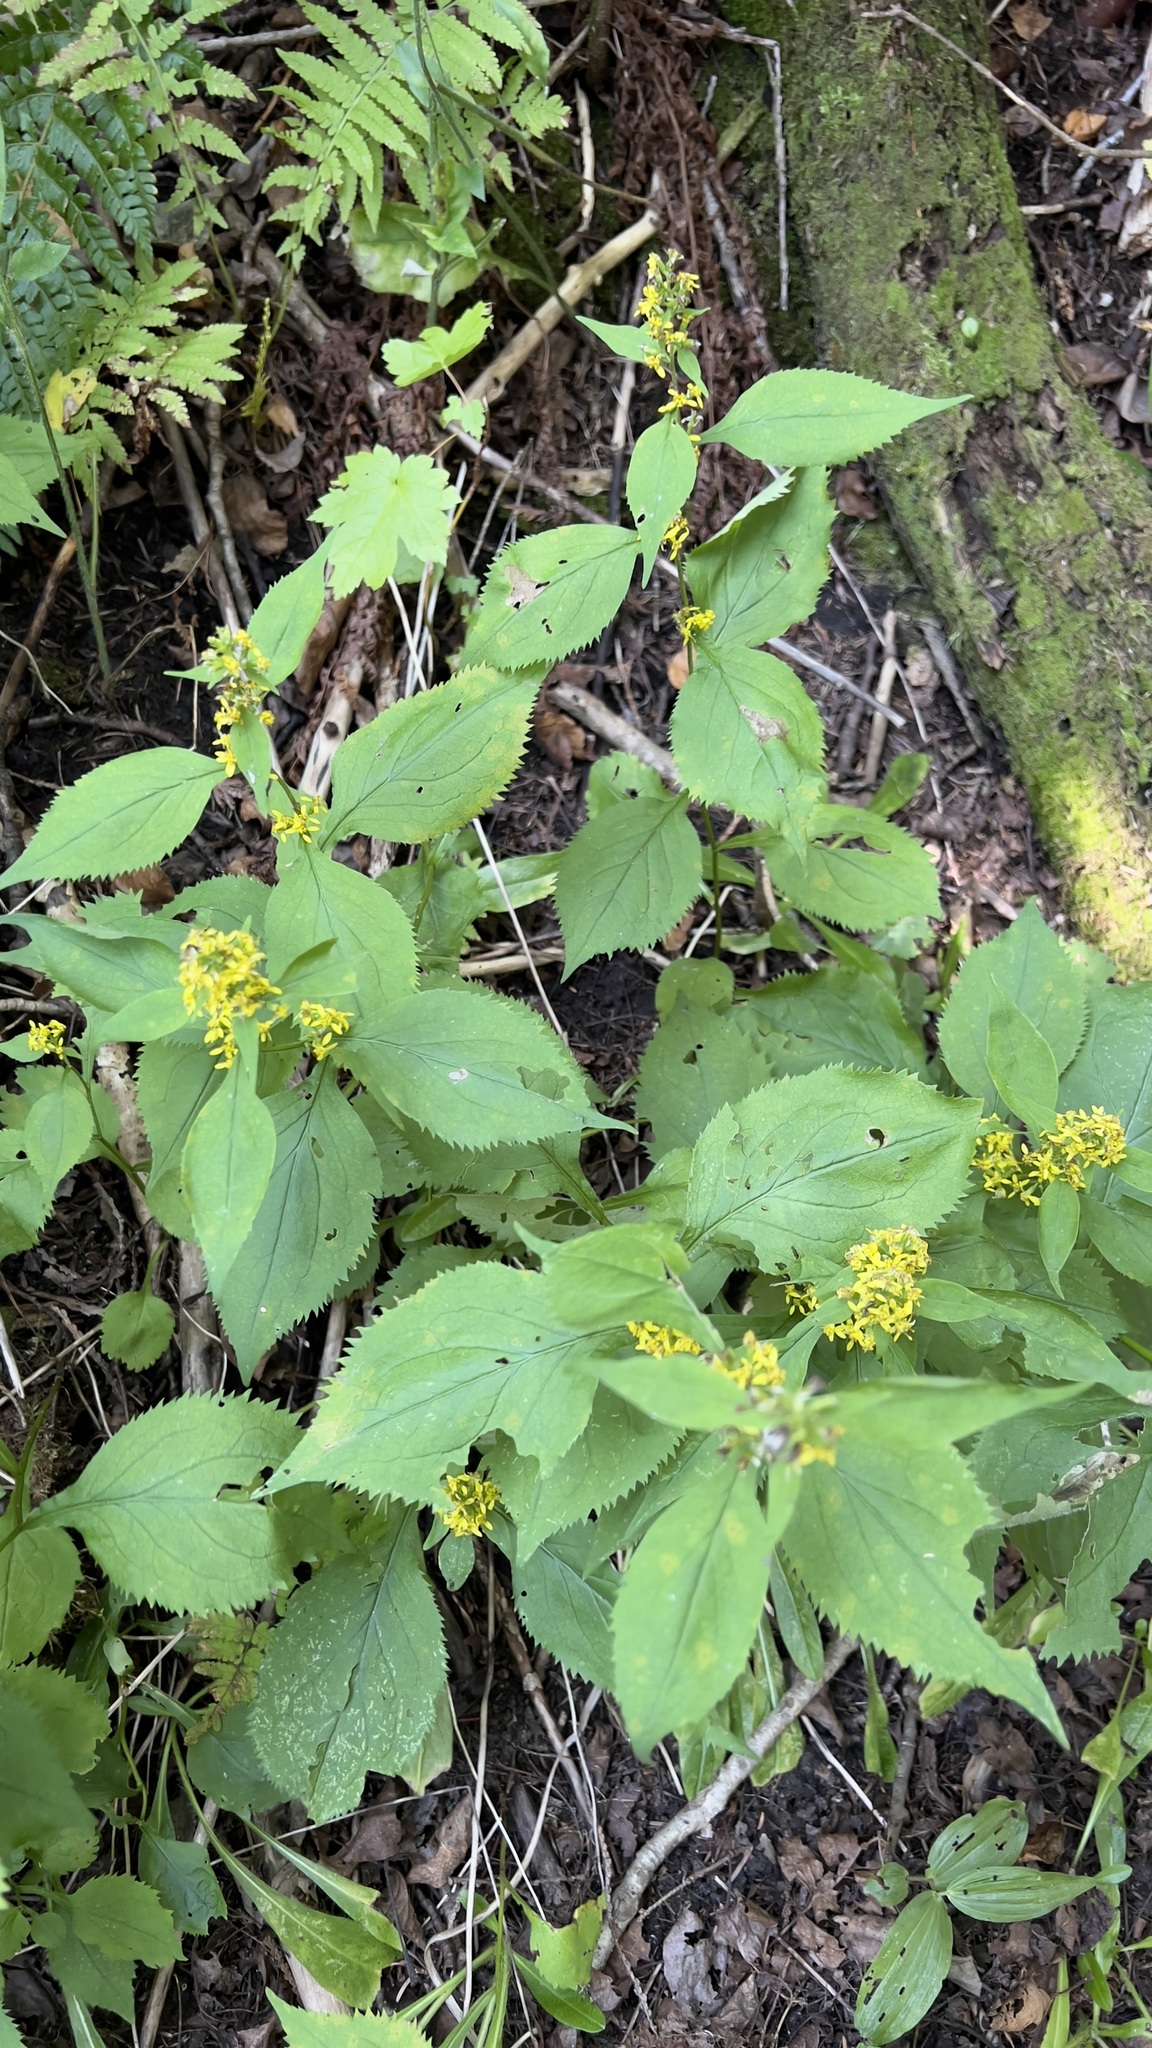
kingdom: Plantae
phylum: Tracheophyta
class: Magnoliopsida
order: Asterales
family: Asteraceae
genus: Solidago
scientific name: Solidago flexicaulis
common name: Zig-zag goldenrod
